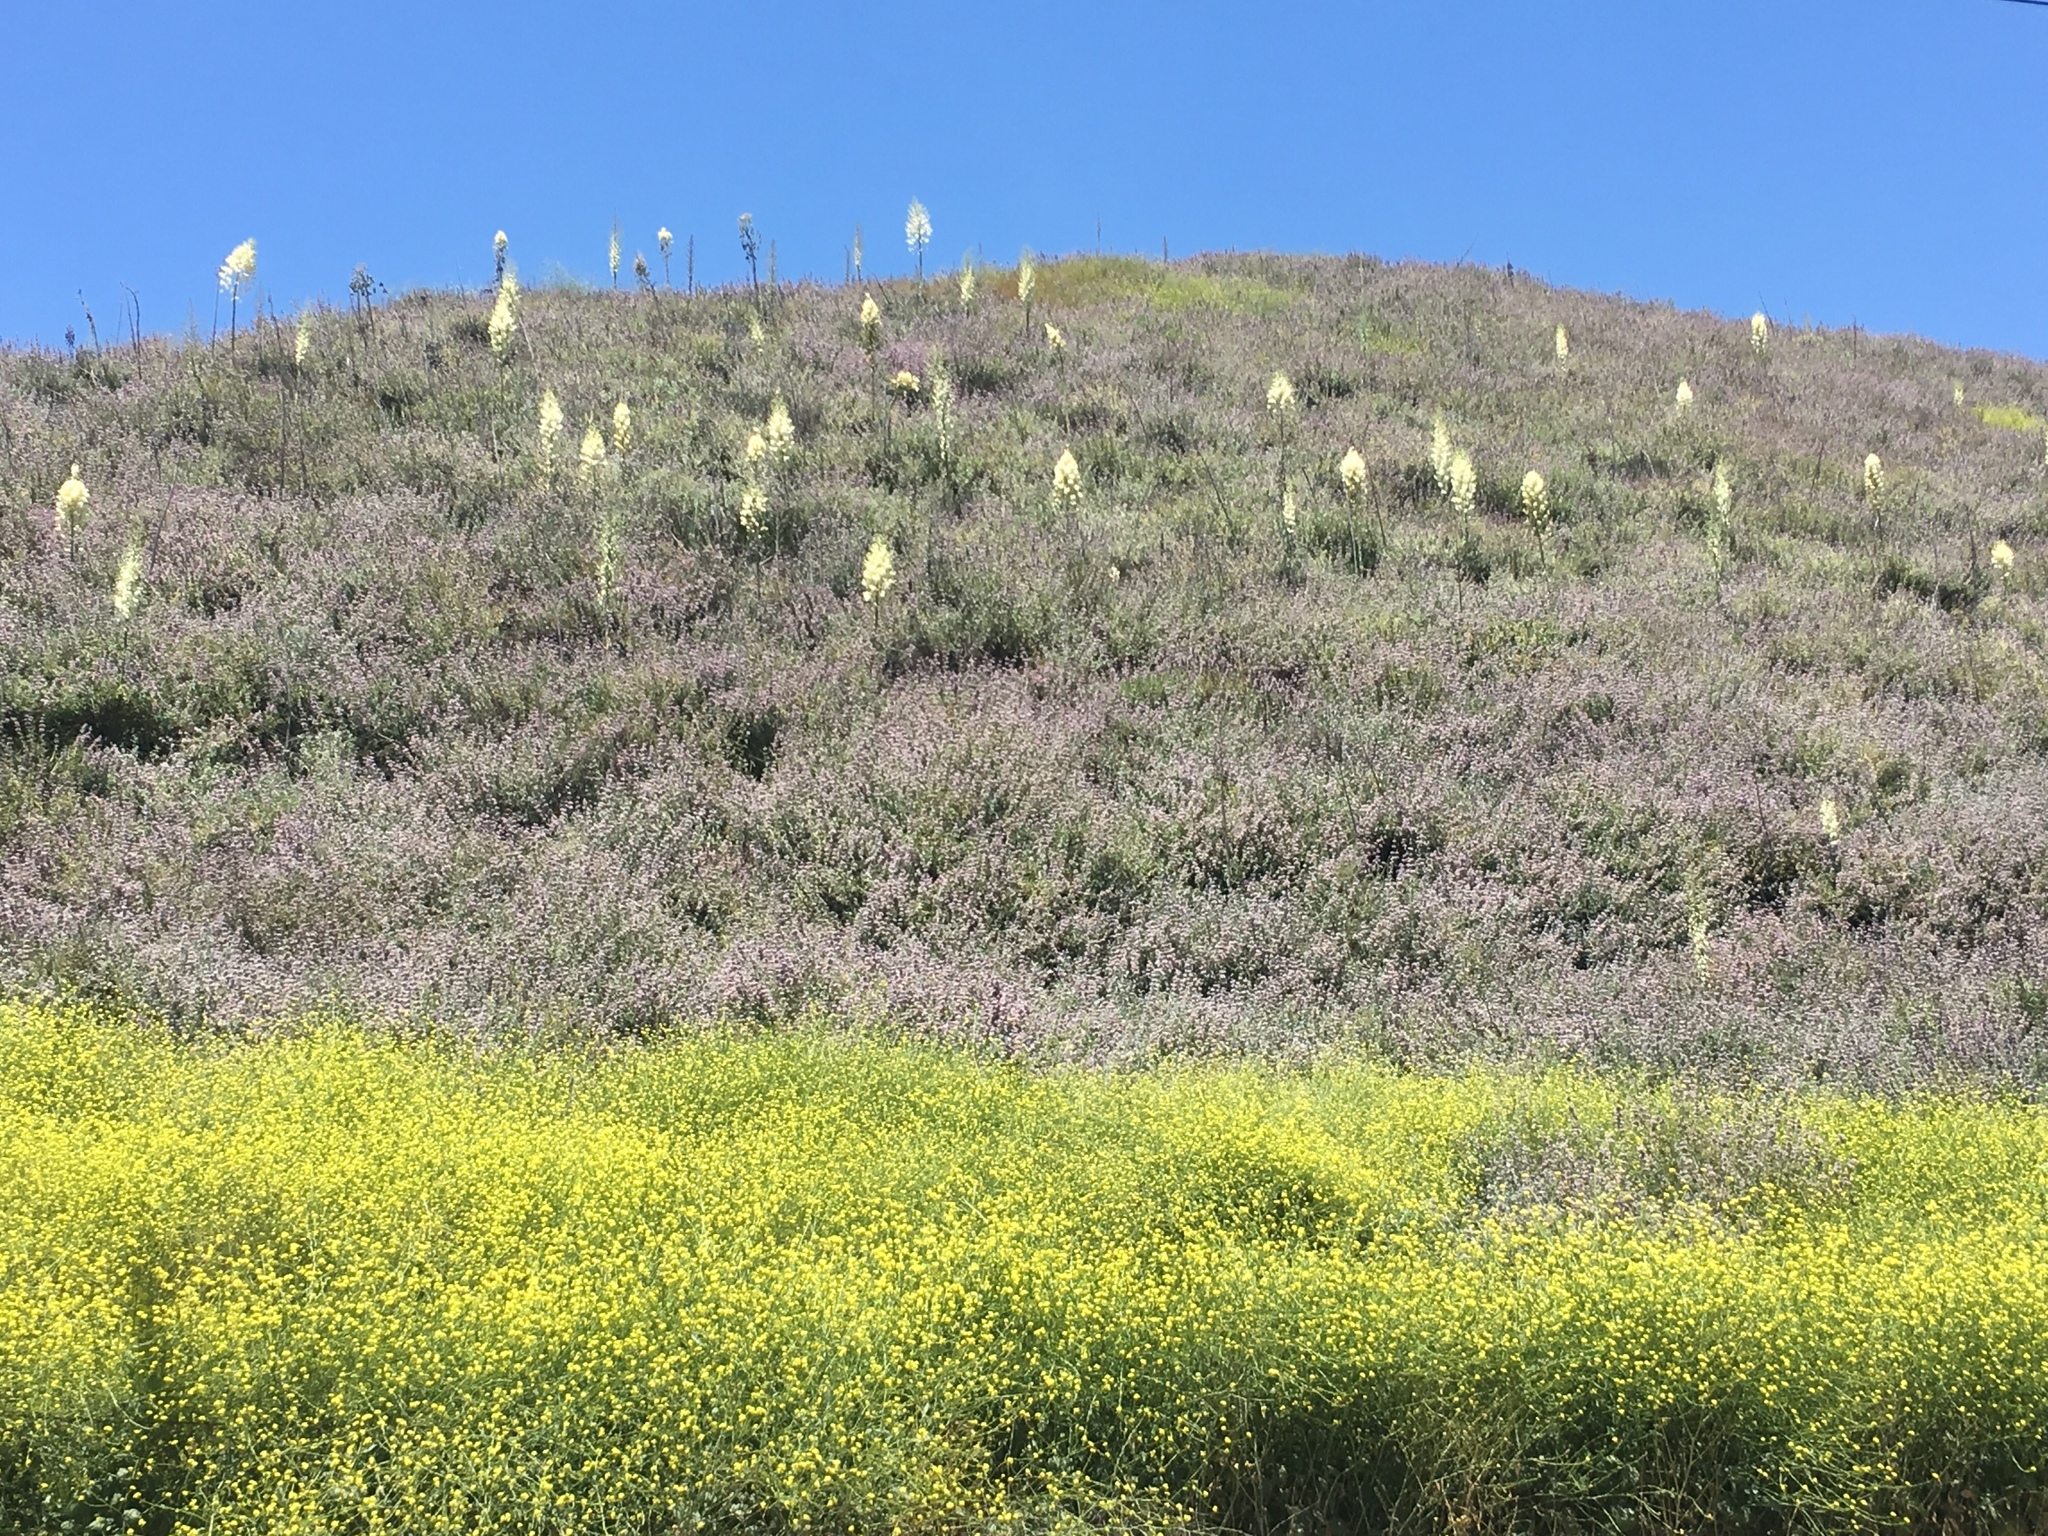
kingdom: Plantae
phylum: Tracheophyta
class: Magnoliopsida
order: Lamiales
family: Lamiaceae
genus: Salvia
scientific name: Salvia leucophylla
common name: Purple sage
